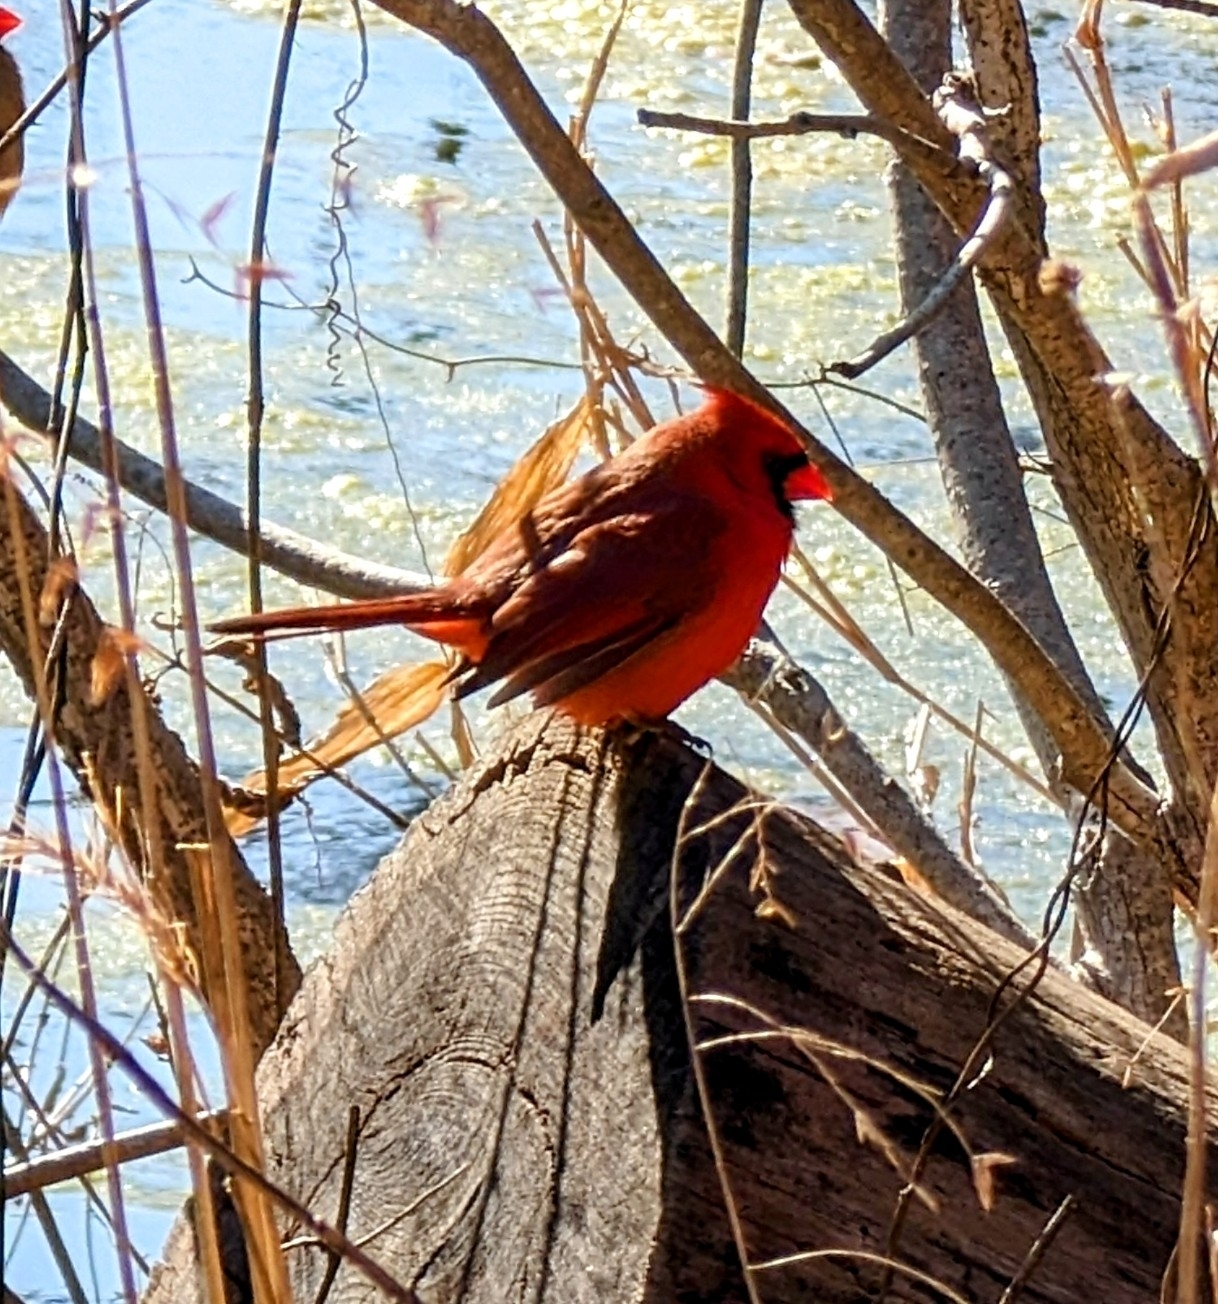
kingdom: Animalia
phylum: Chordata
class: Aves
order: Passeriformes
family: Cardinalidae
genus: Cardinalis
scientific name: Cardinalis cardinalis
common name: Northern cardinal
